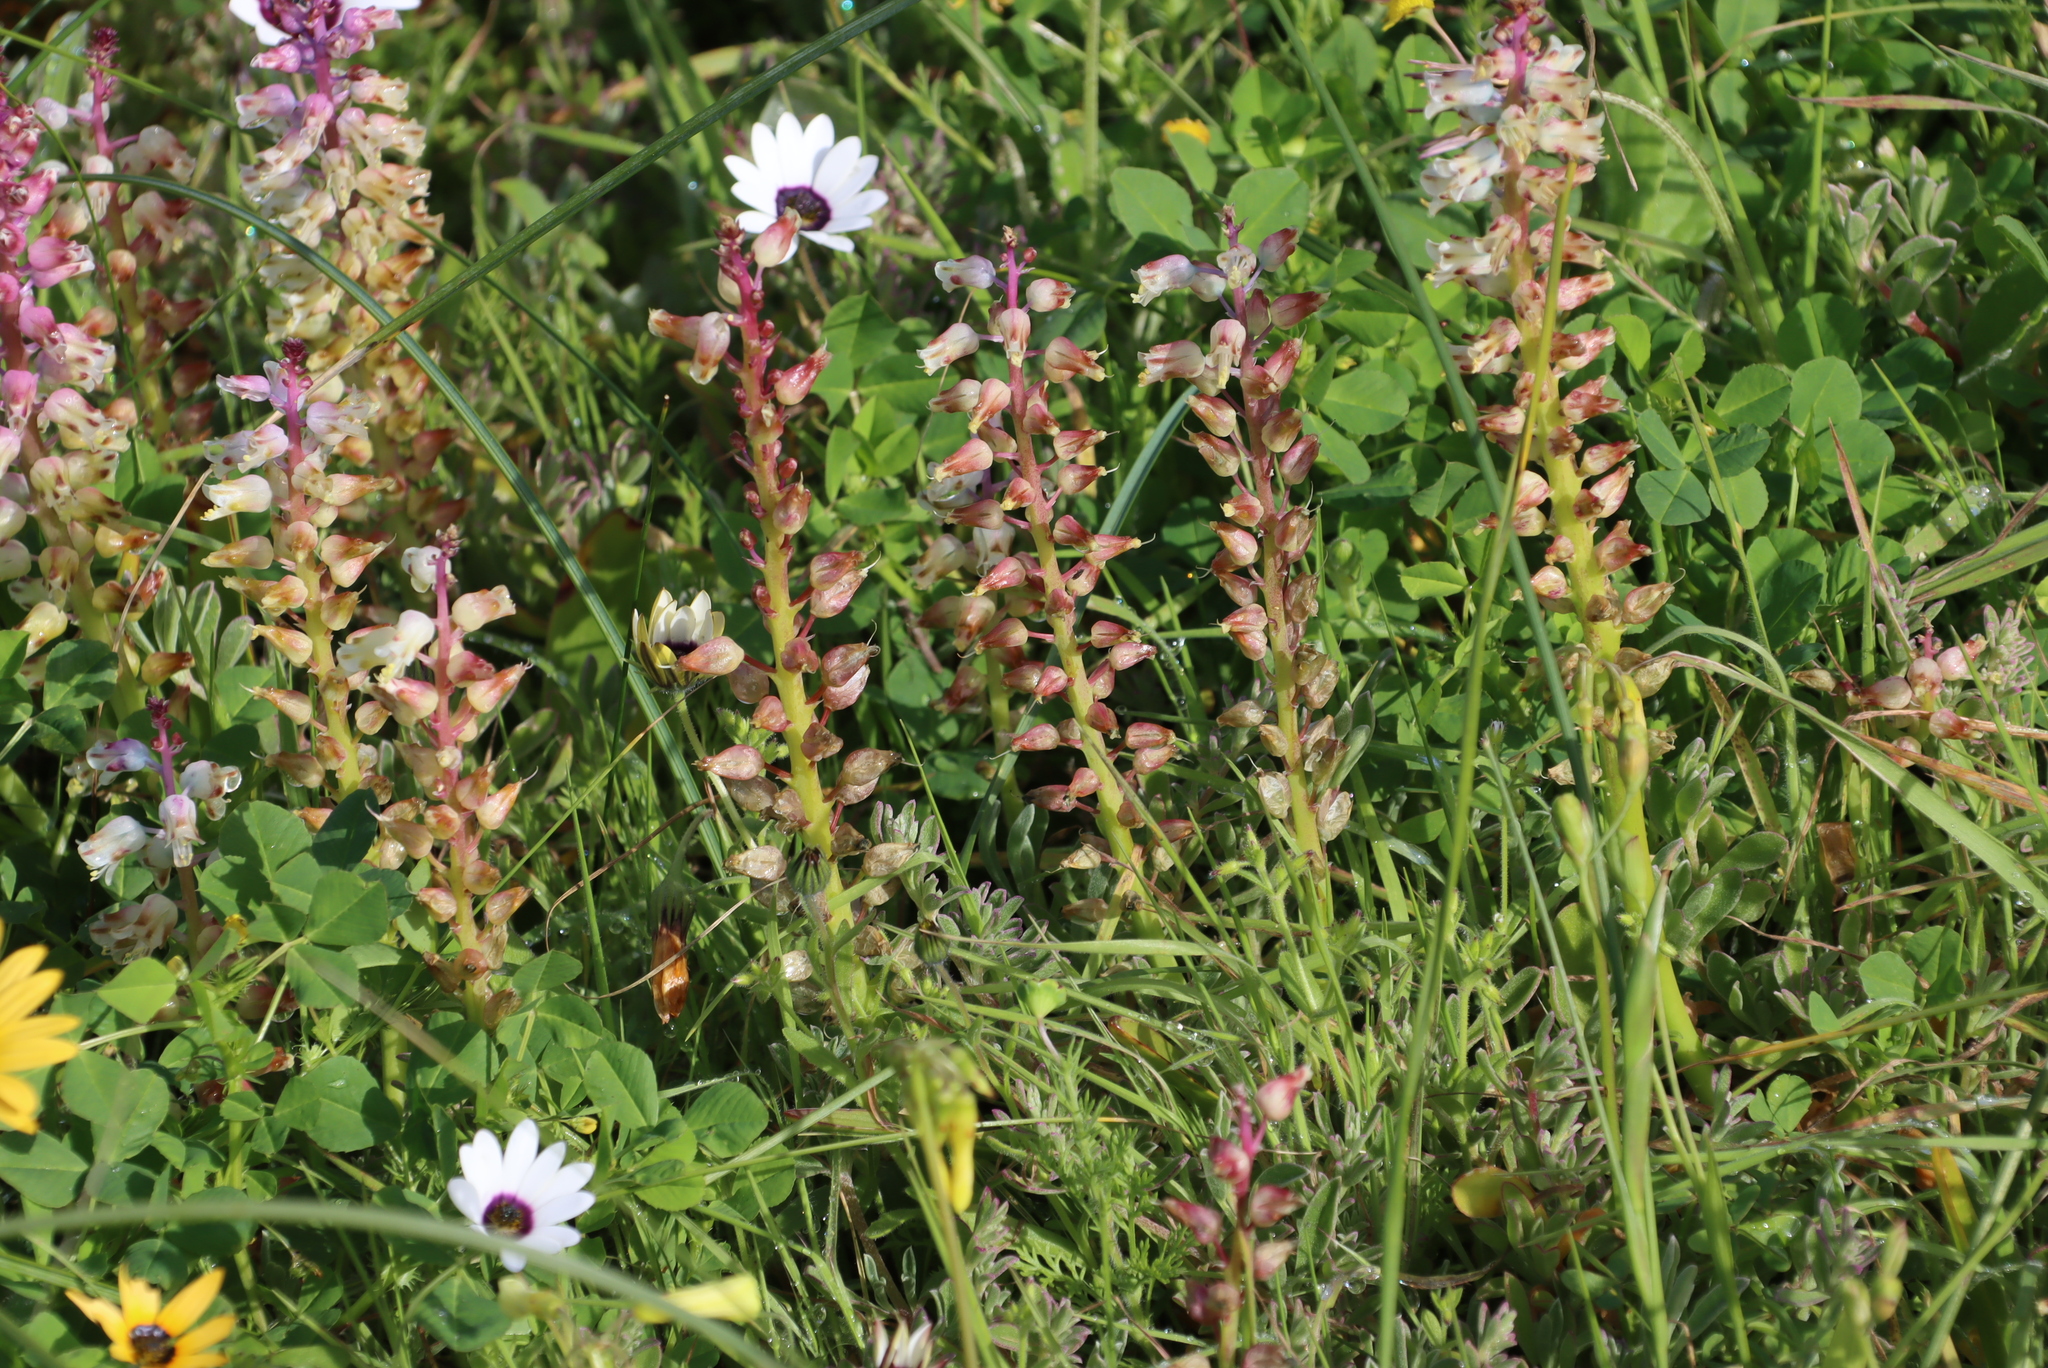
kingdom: Plantae
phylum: Tracheophyta
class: Liliopsida
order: Asparagales
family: Asparagaceae
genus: Lachenalia
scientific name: Lachenalia pallida
